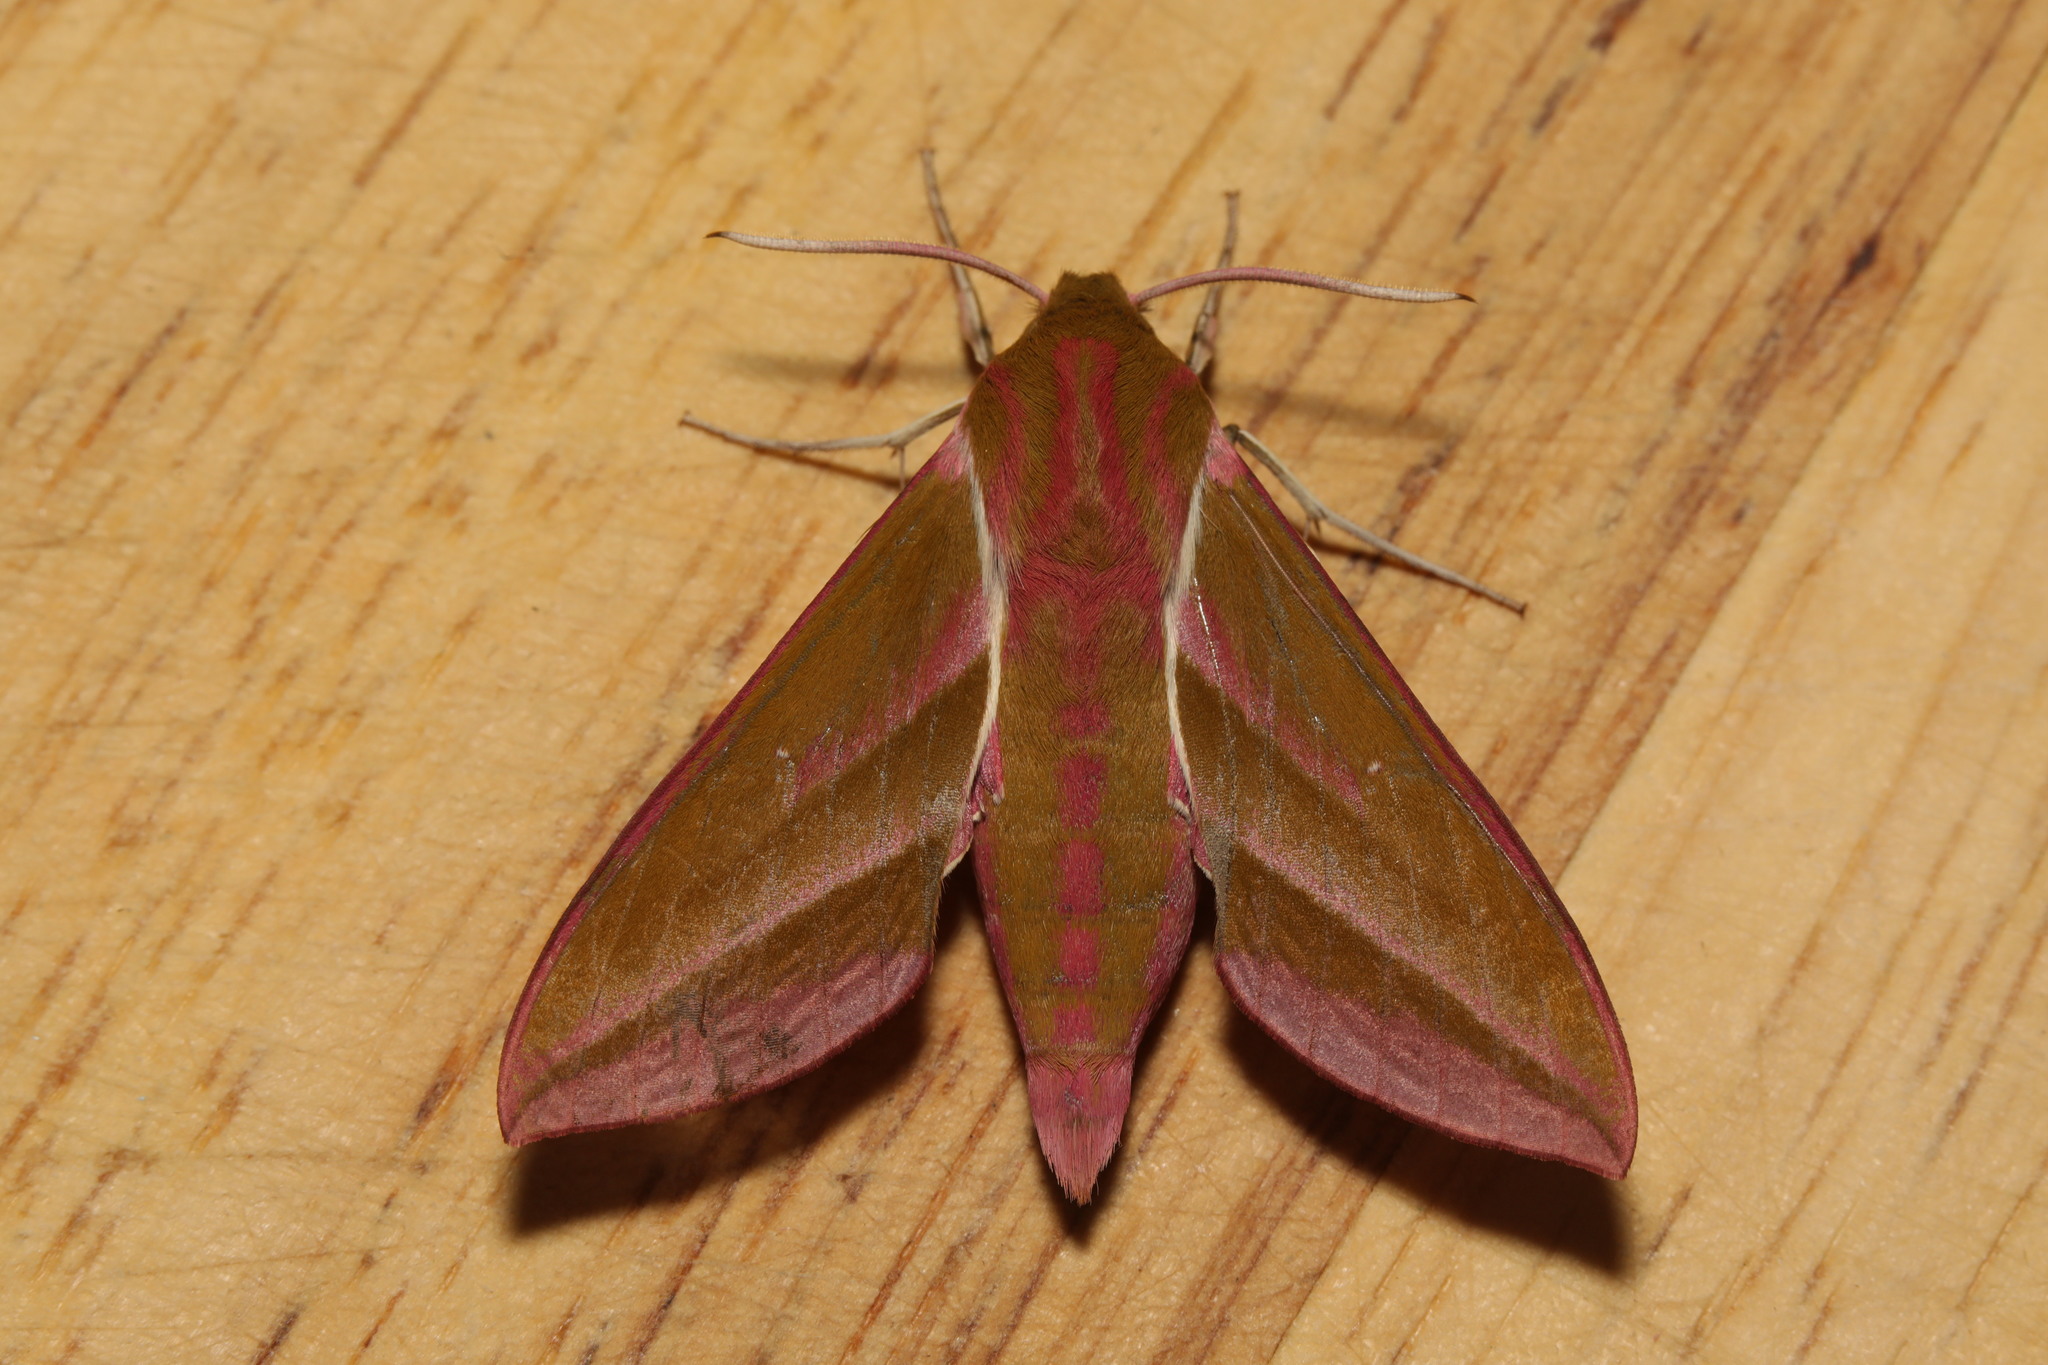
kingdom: Animalia
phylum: Arthropoda
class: Insecta
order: Lepidoptera
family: Sphingidae
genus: Deilephila
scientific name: Deilephila elpenor
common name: Elephant hawk-moth
